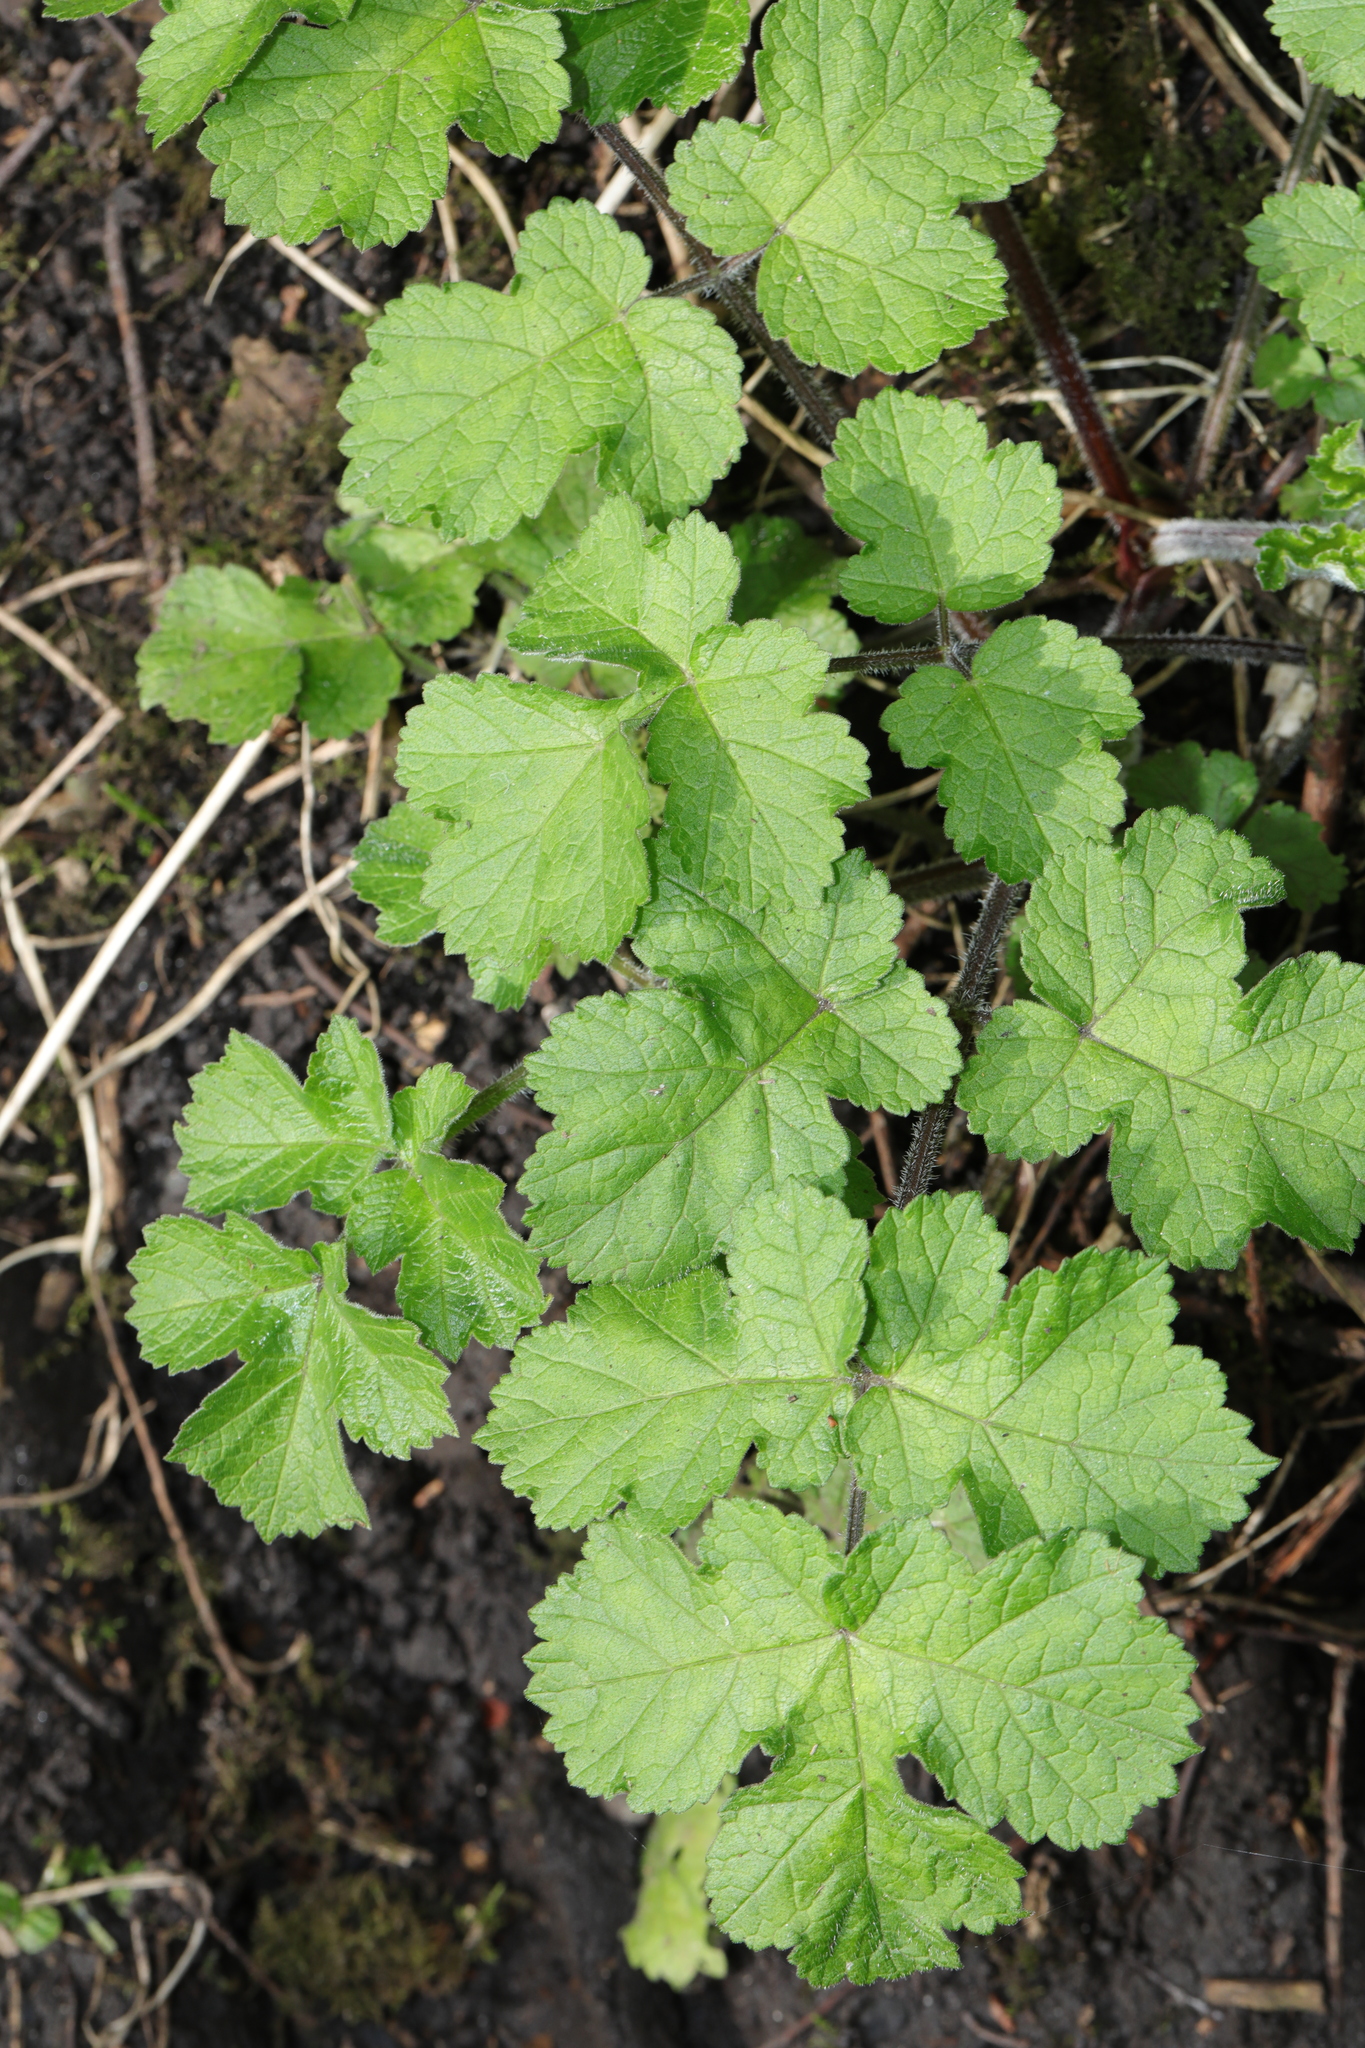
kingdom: Plantae
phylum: Tracheophyta
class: Magnoliopsida
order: Apiales
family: Apiaceae
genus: Heracleum
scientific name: Heracleum sphondylium
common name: Hogweed
